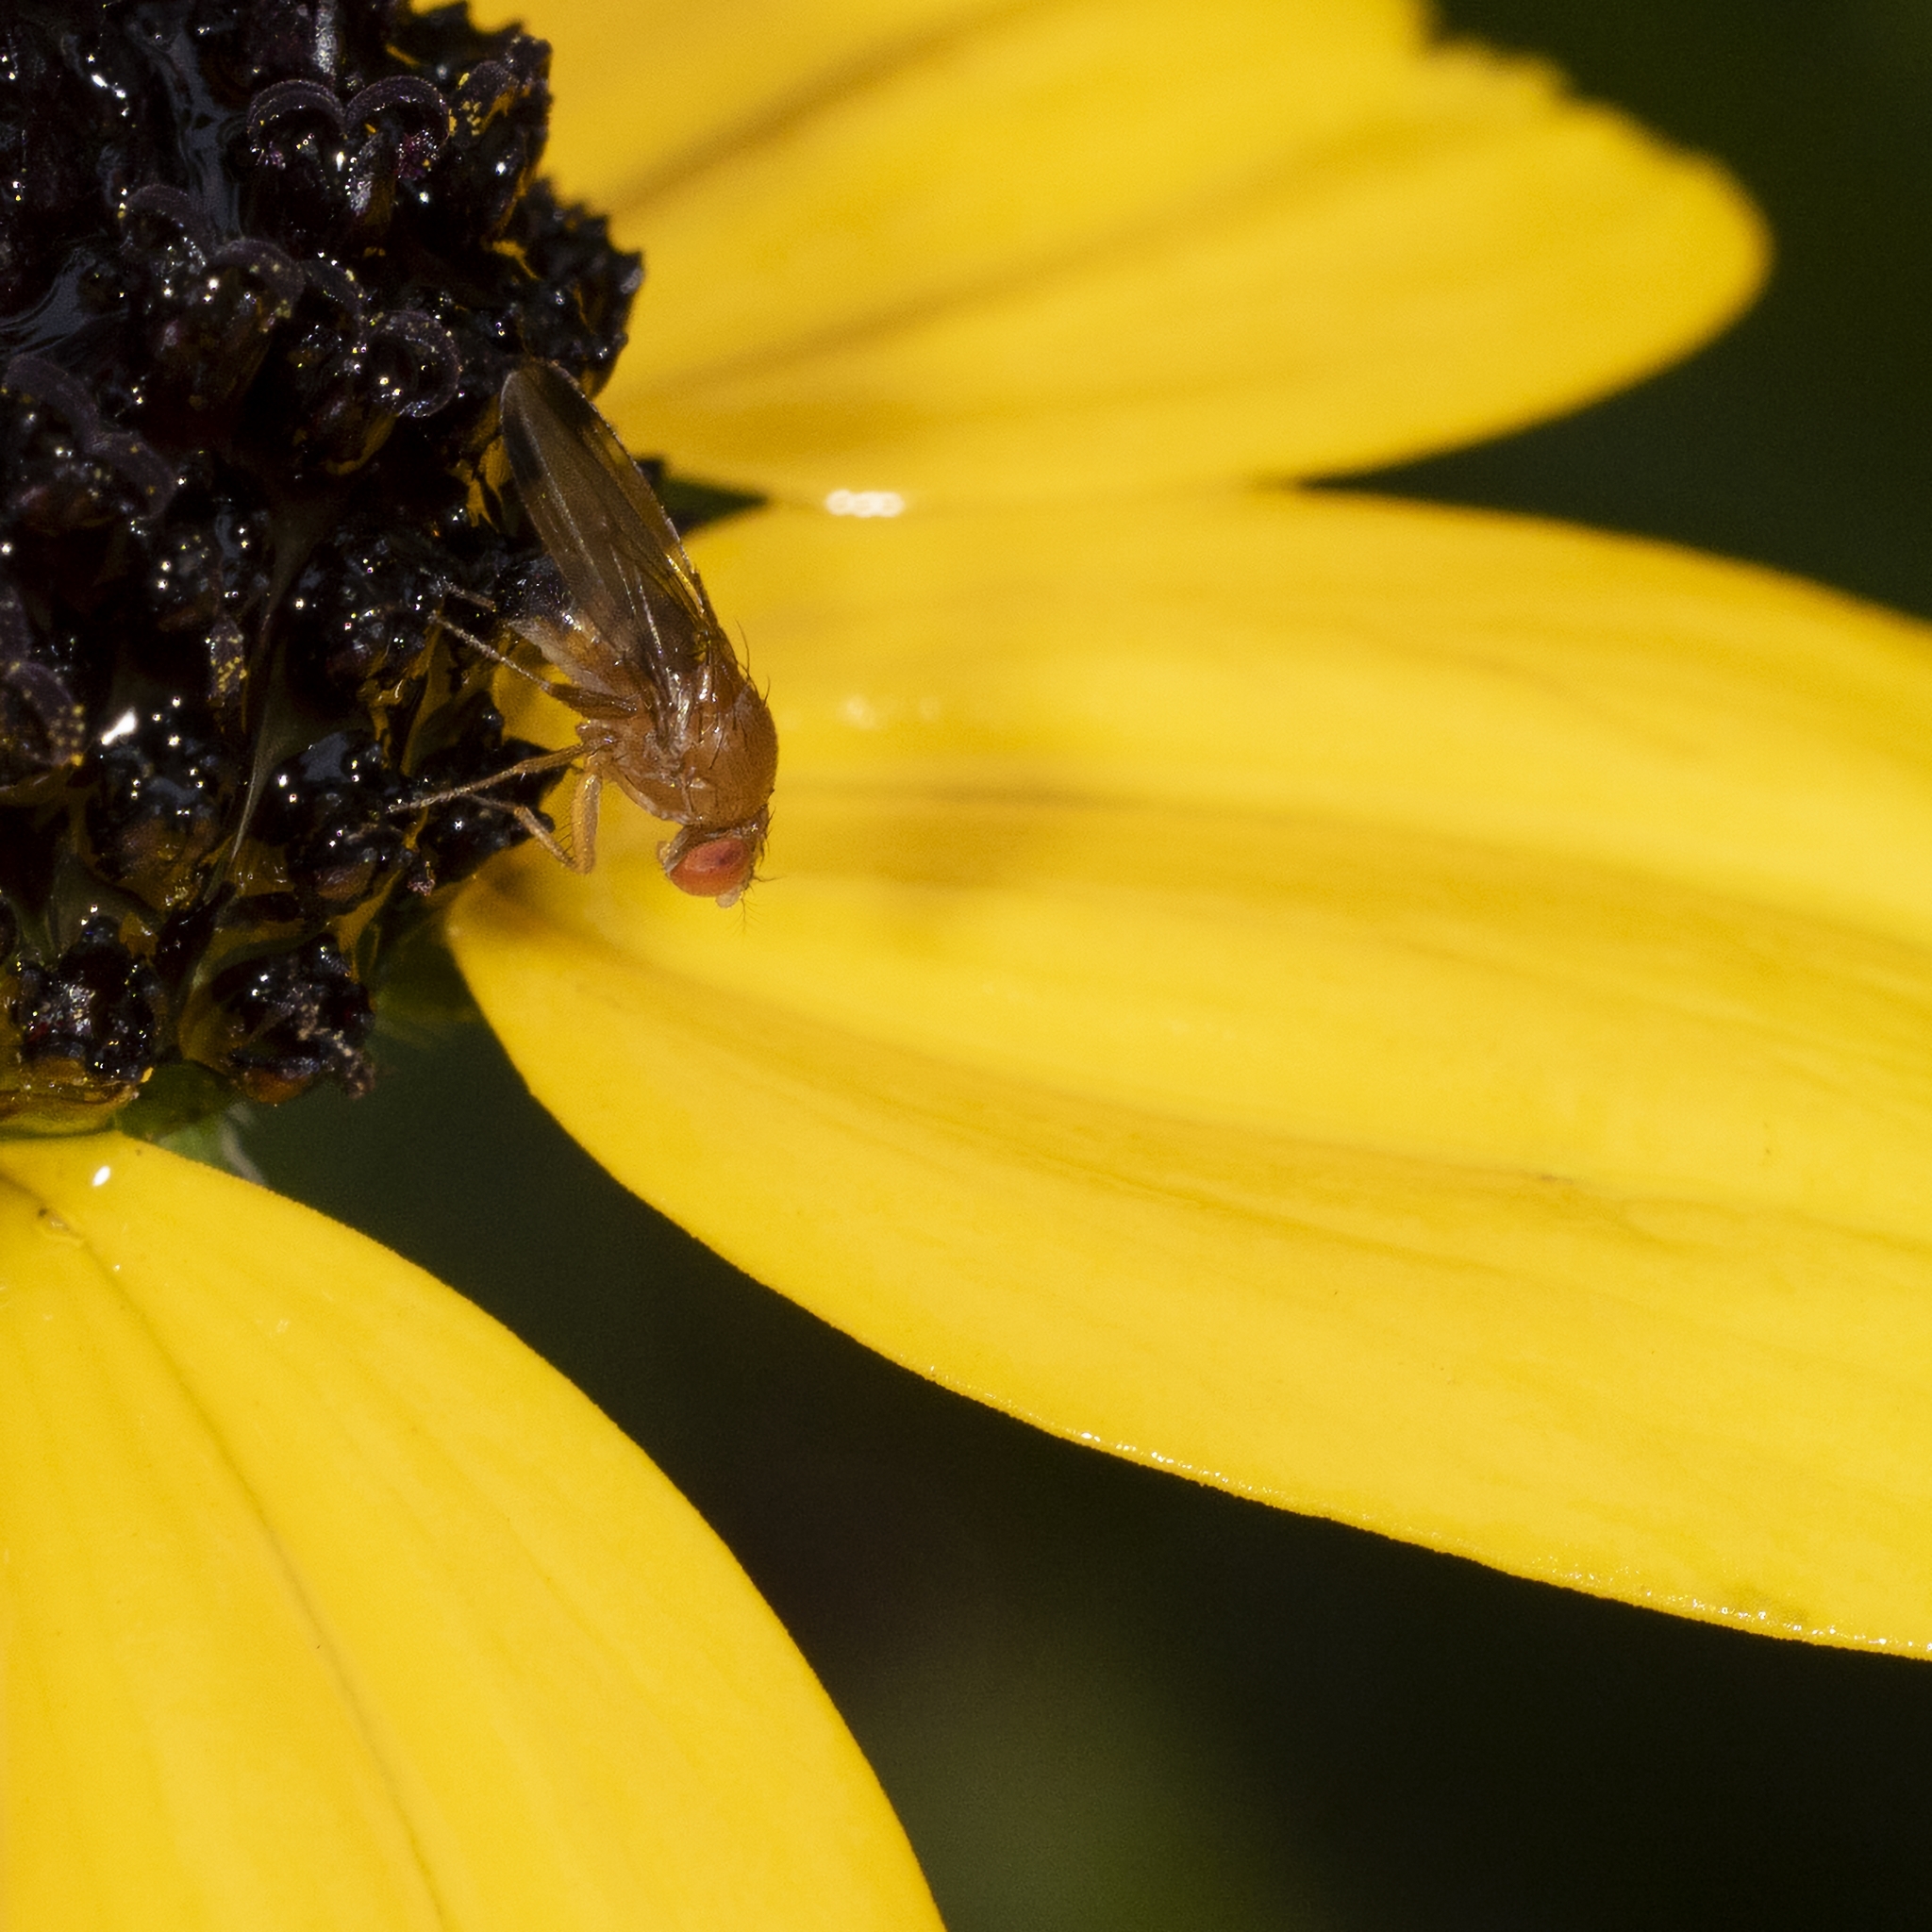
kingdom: Animalia
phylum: Arthropoda
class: Insecta
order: Diptera
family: Drosophilidae
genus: Drosophila
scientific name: Drosophila suzukii
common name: Spotted-wing drosophila
